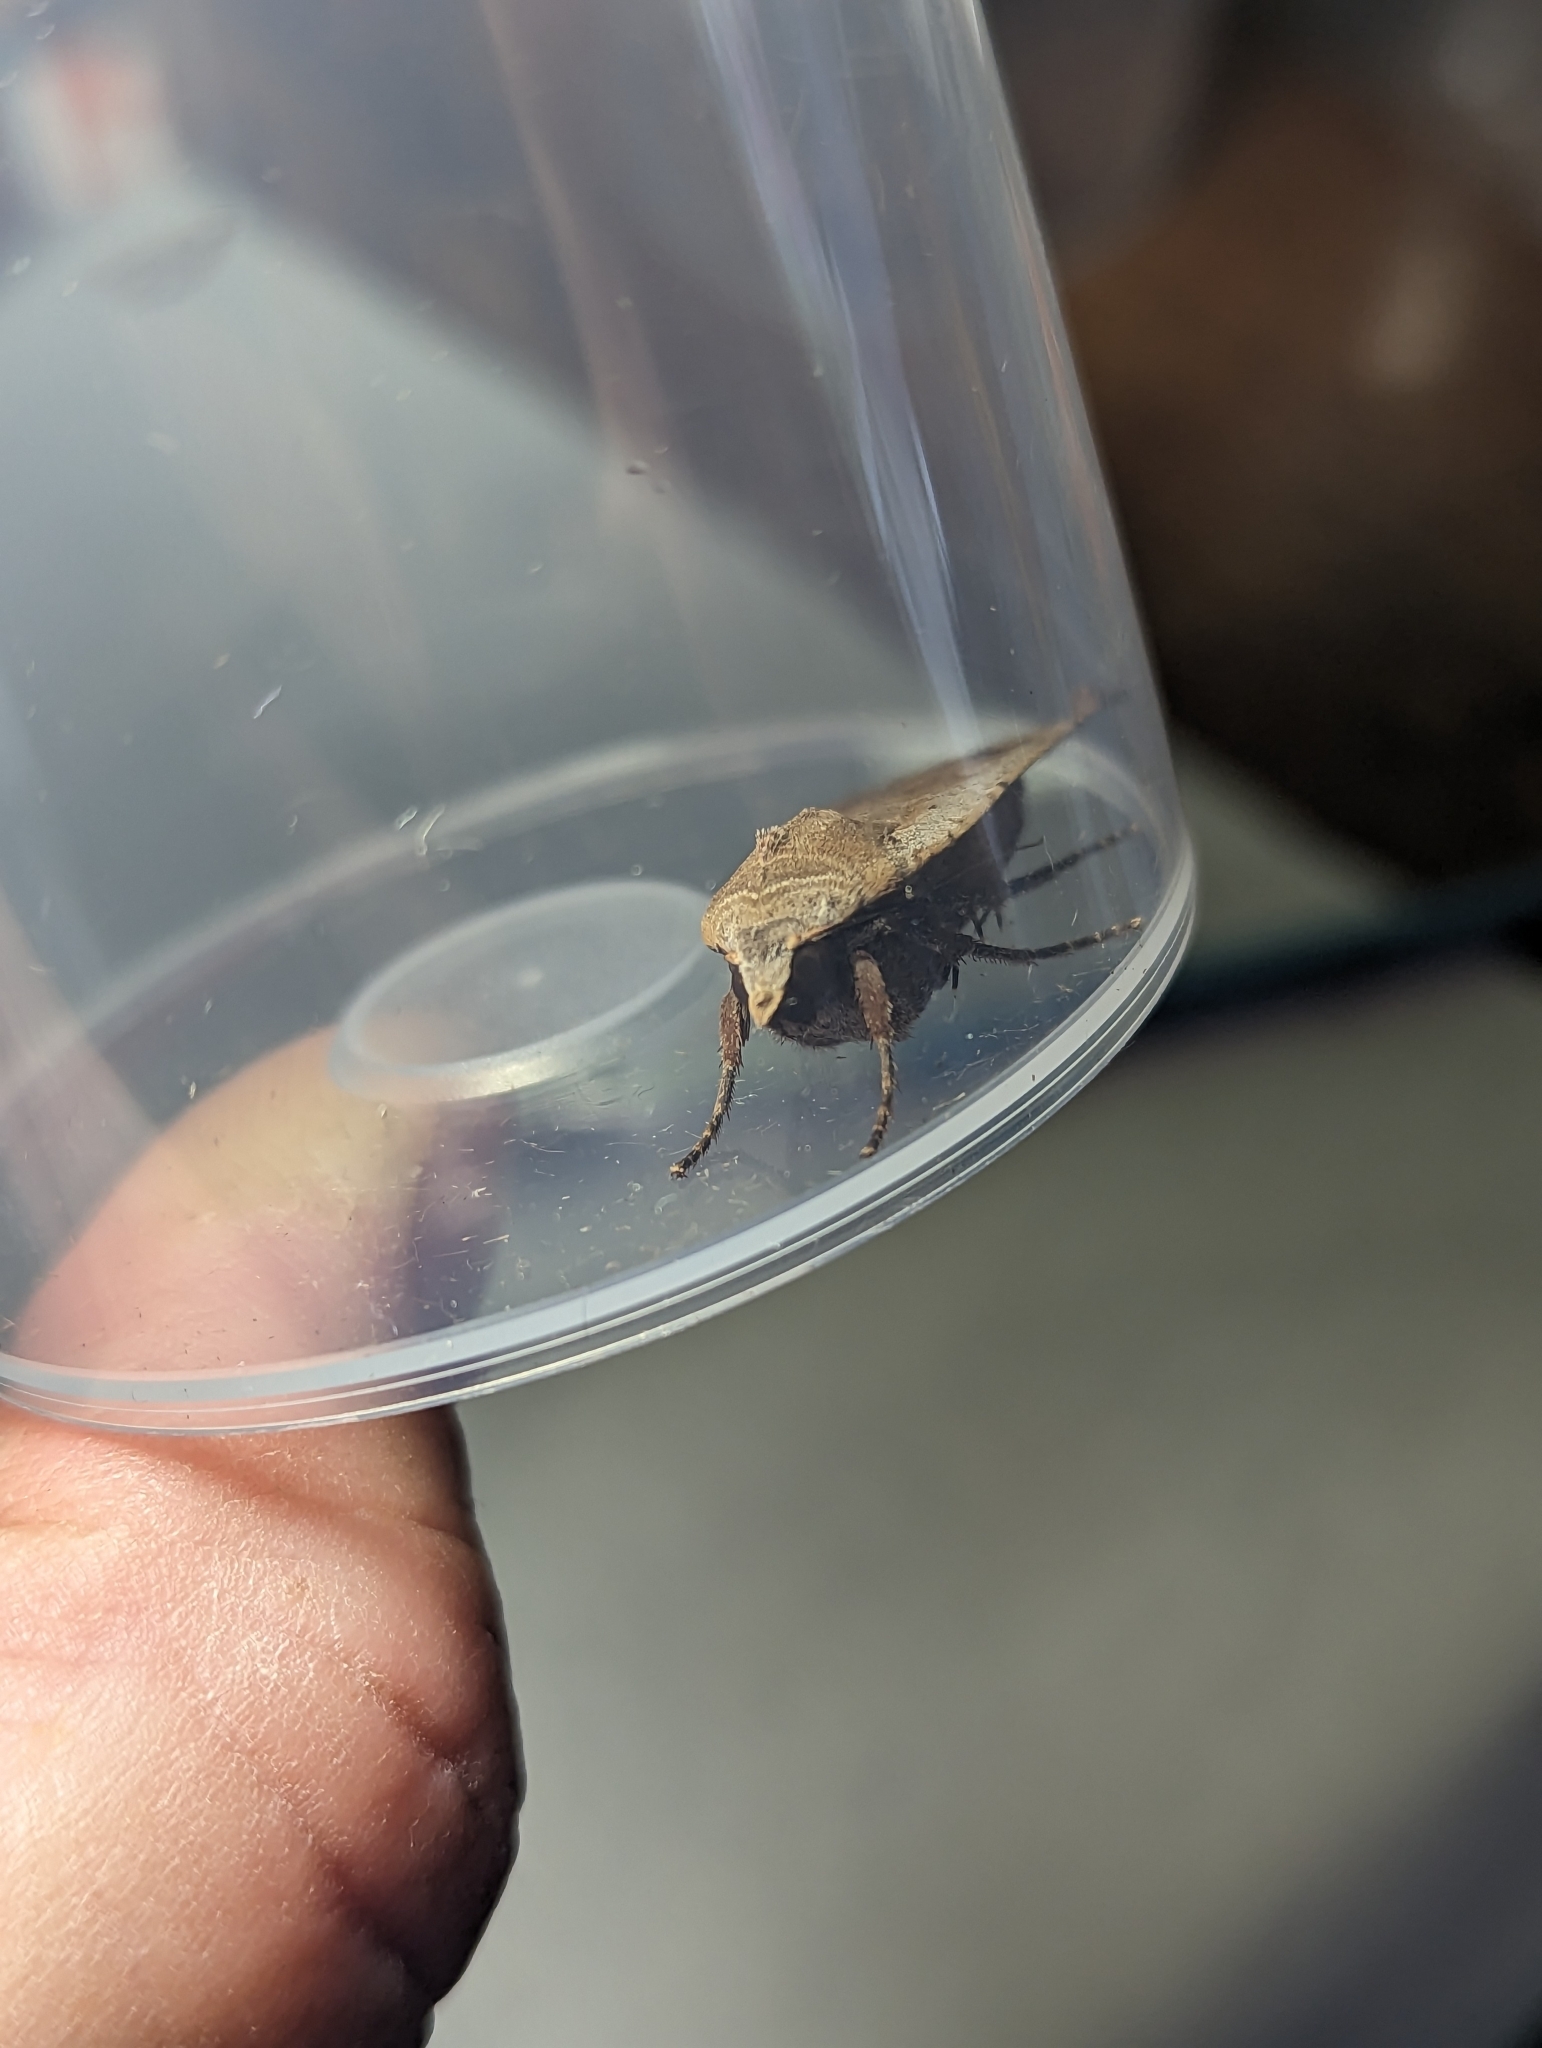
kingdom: Animalia
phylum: Arthropoda
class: Insecta
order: Lepidoptera
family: Noctuidae
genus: Noctua
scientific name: Noctua pronuba
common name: Large yellow underwing
